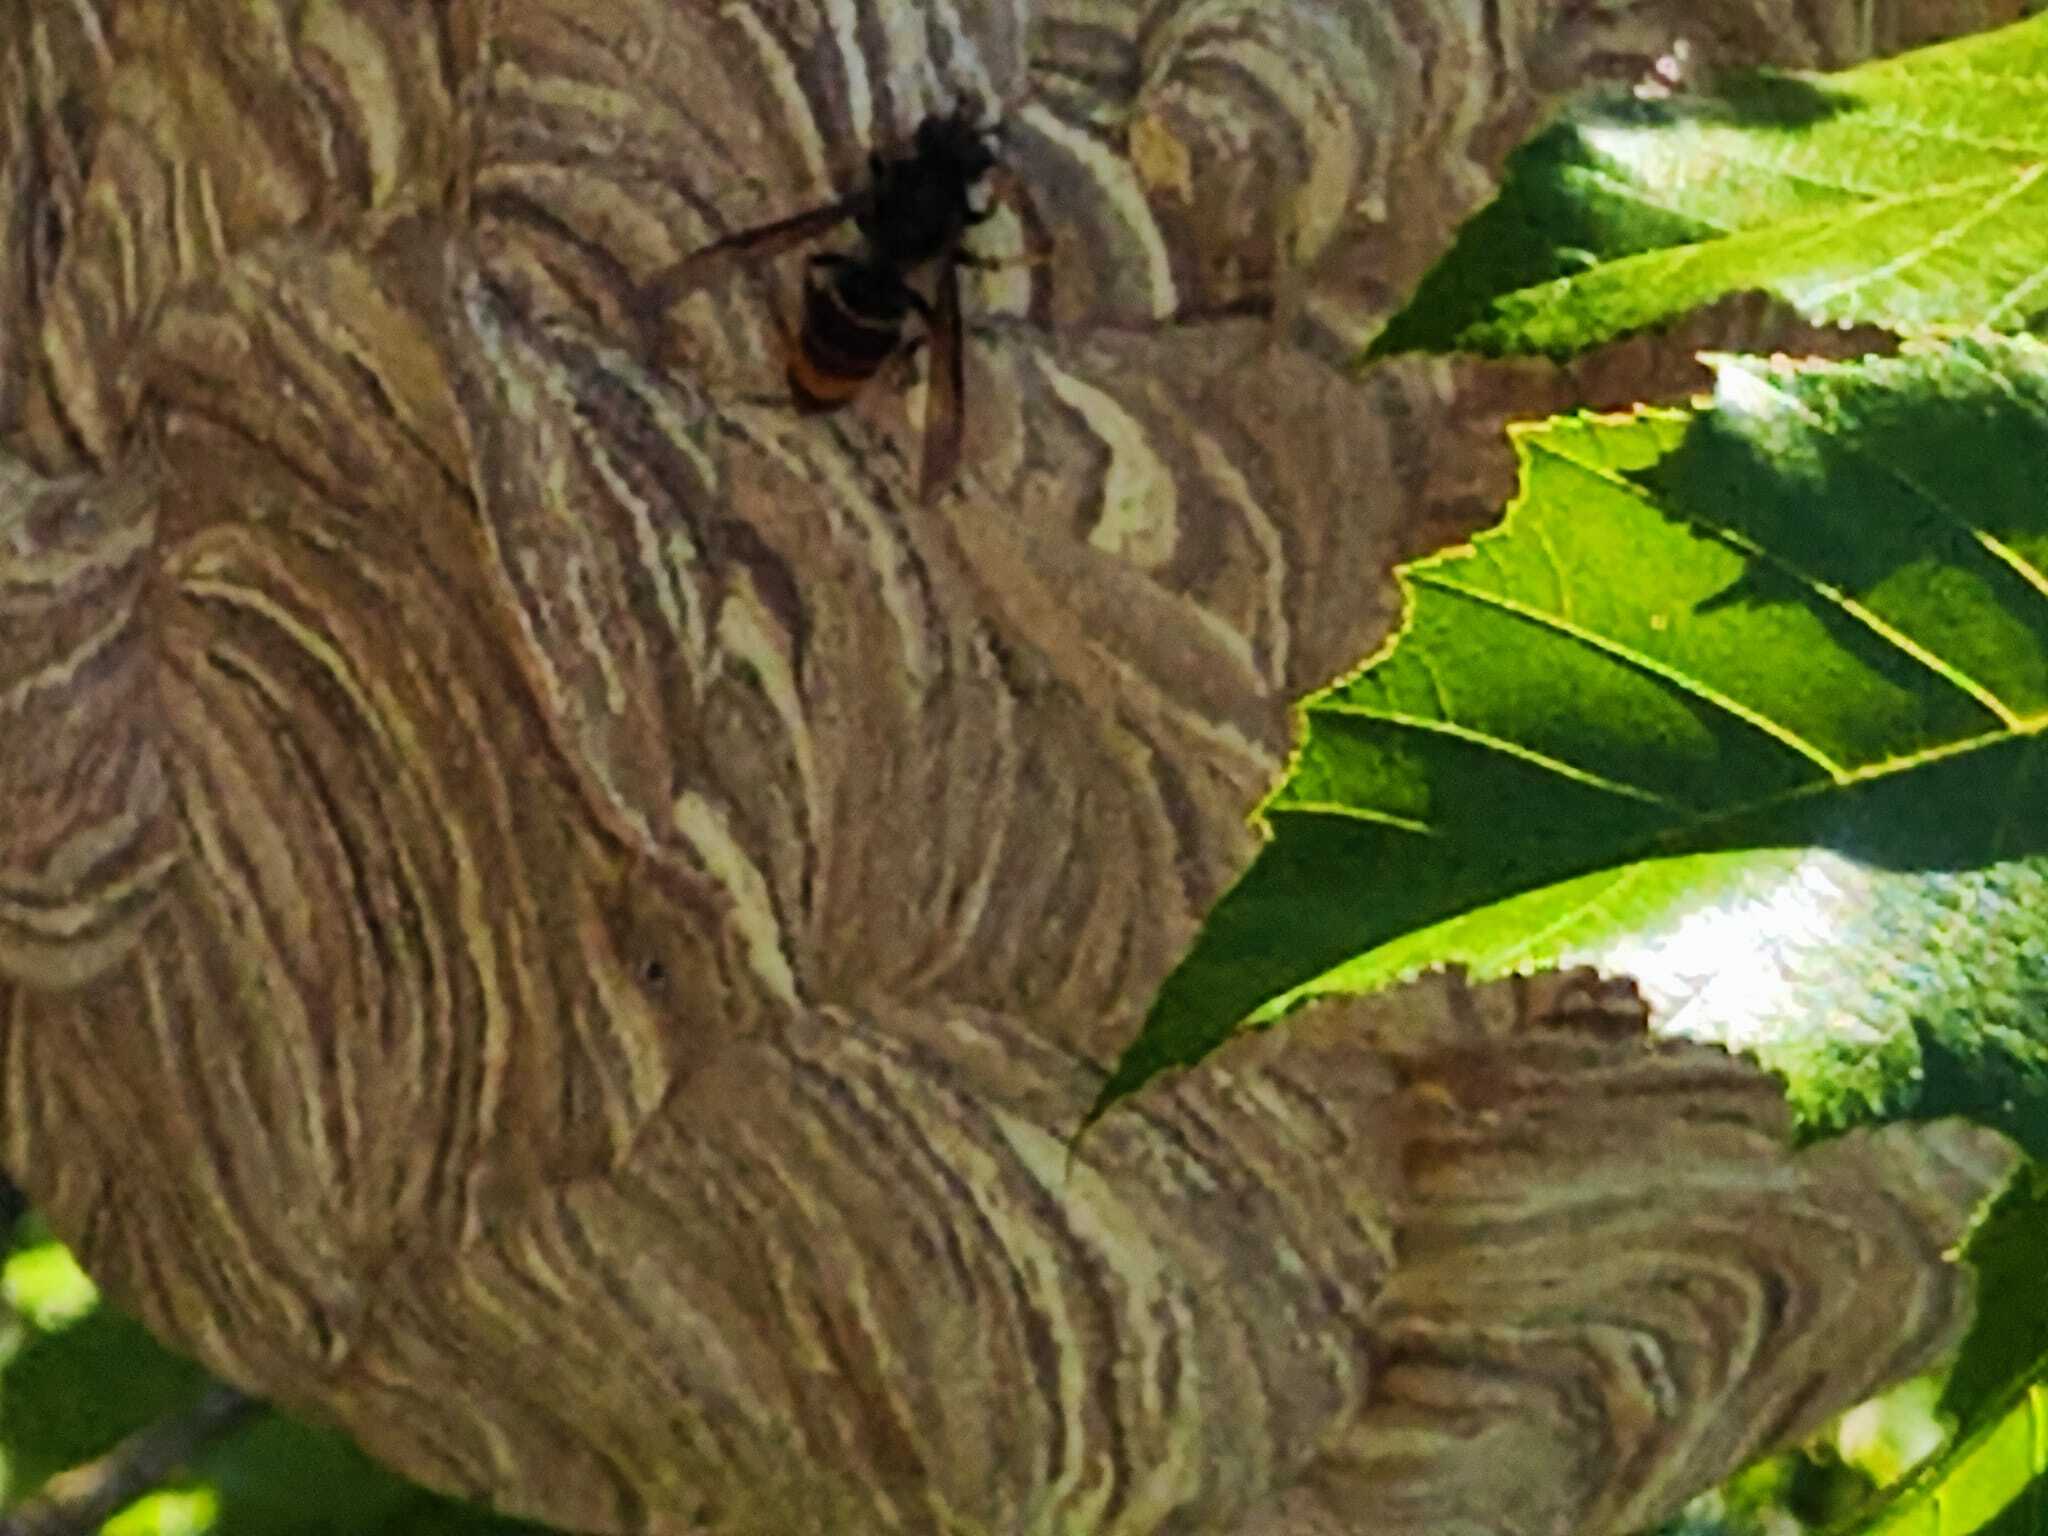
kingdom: Animalia
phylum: Arthropoda
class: Insecta
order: Hymenoptera
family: Vespidae
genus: Vespa
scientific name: Vespa velutina
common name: Asian hornet
